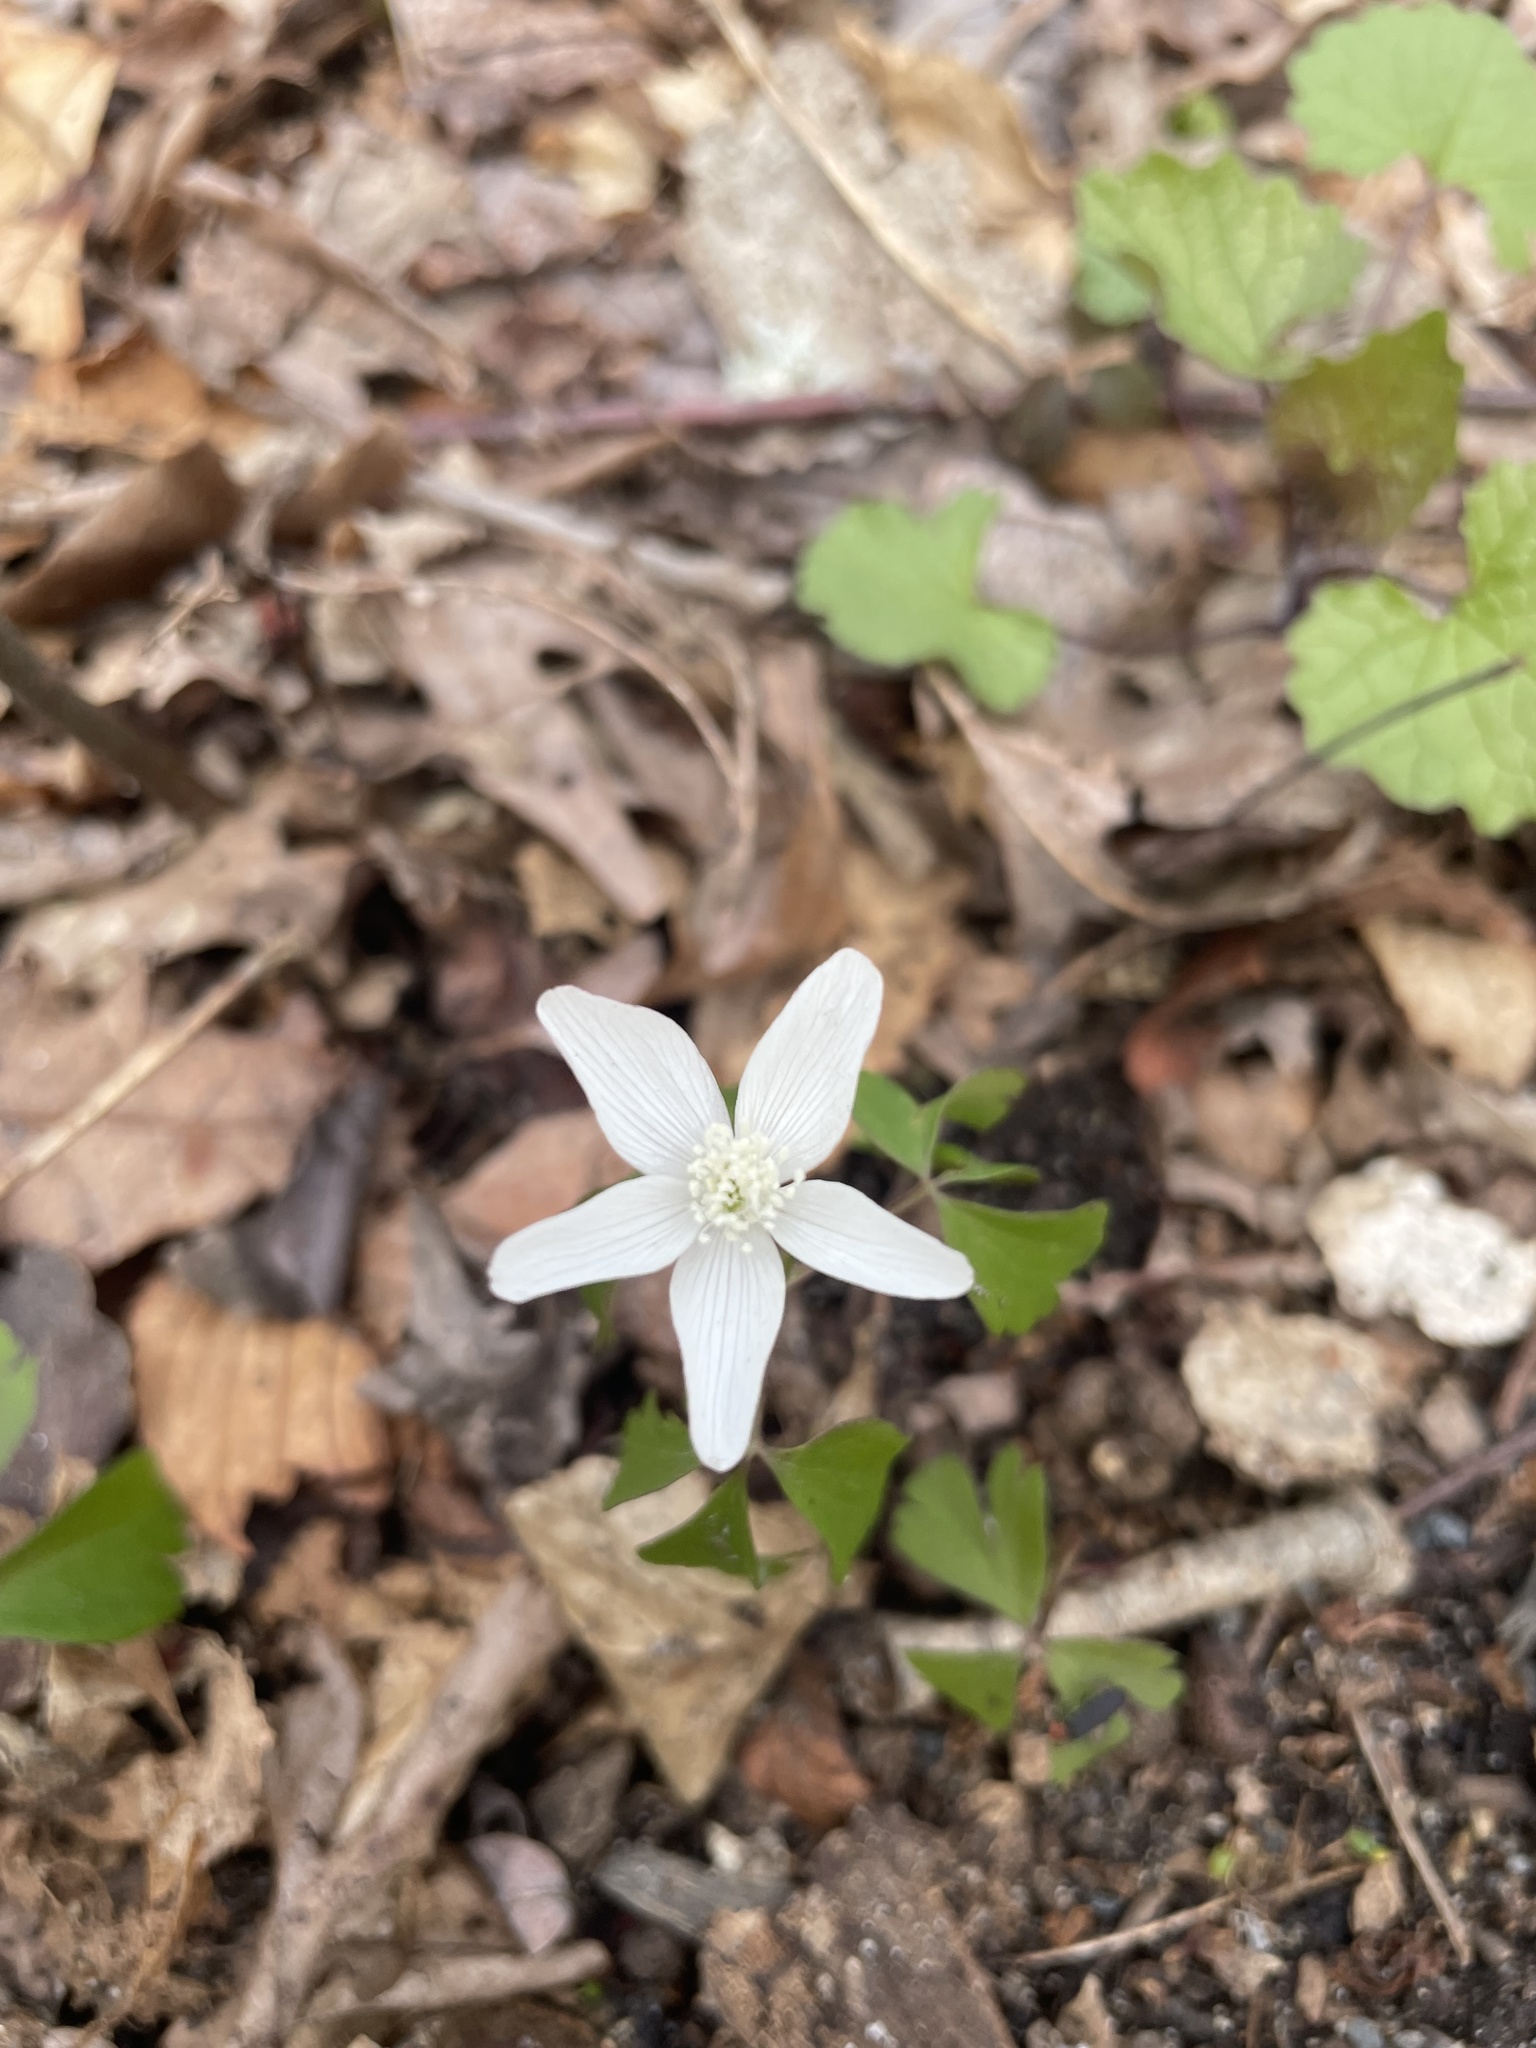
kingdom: Plantae
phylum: Tracheophyta
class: Magnoliopsida
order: Ranunculales
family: Ranunculaceae
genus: Anemone
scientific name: Anemone quinquefolia
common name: Wood anemone
